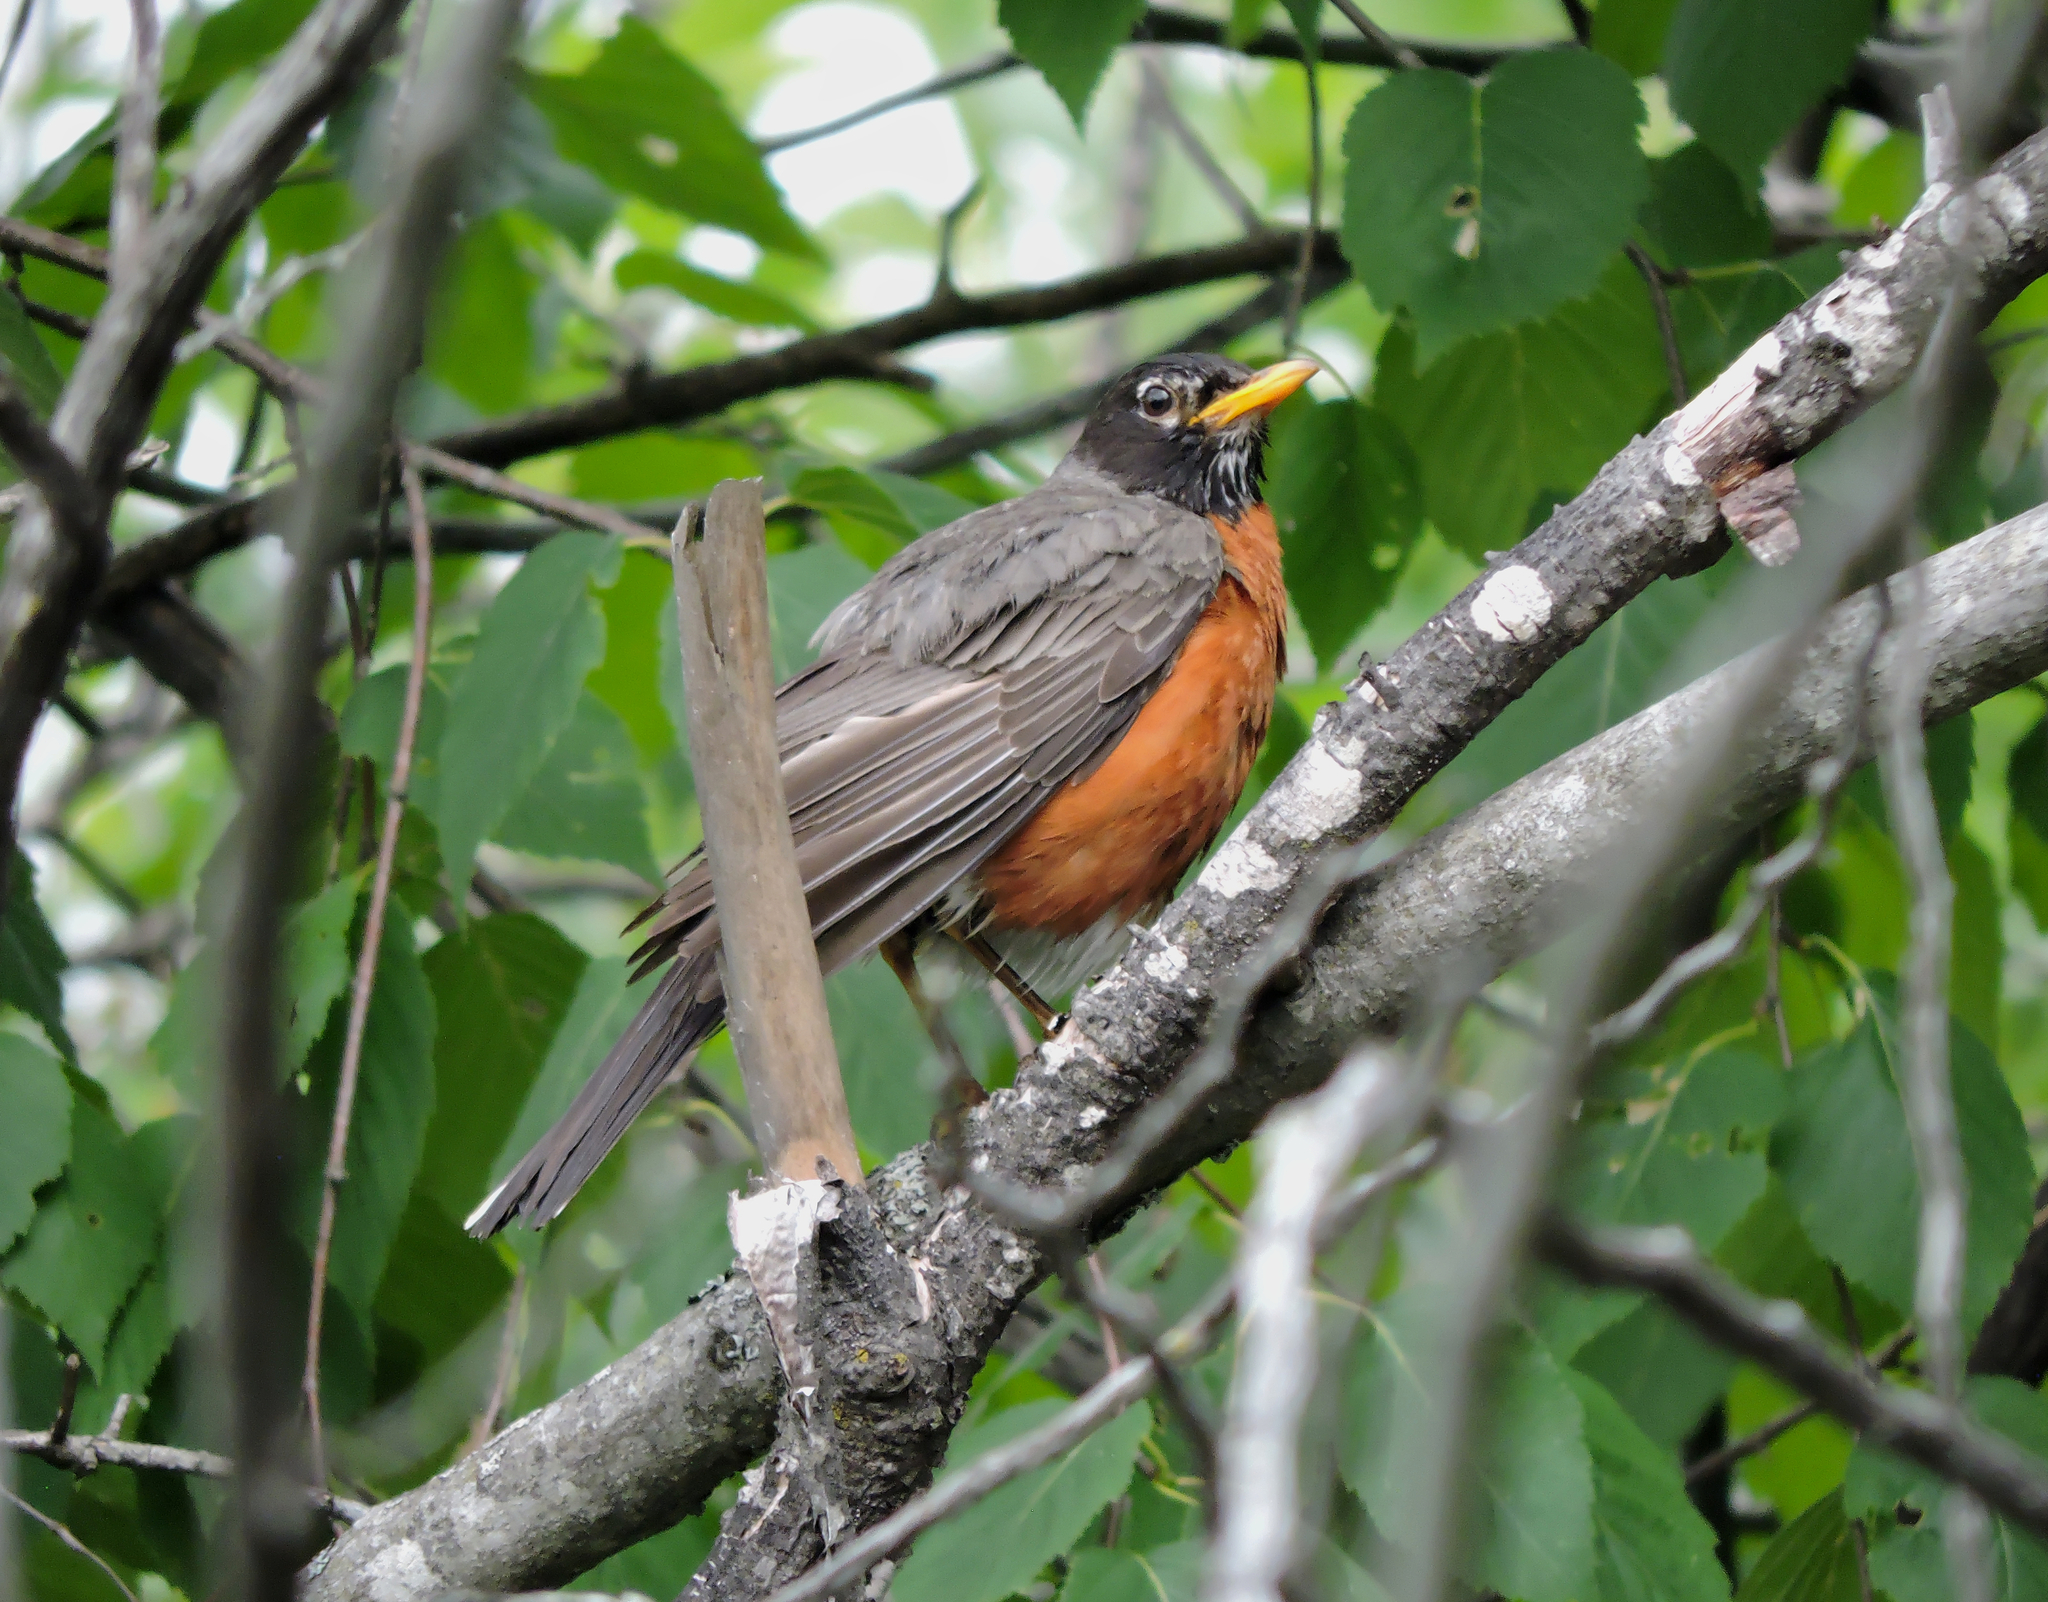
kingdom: Animalia
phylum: Chordata
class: Aves
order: Passeriformes
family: Turdidae
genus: Turdus
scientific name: Turdus migratorius
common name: American robin
